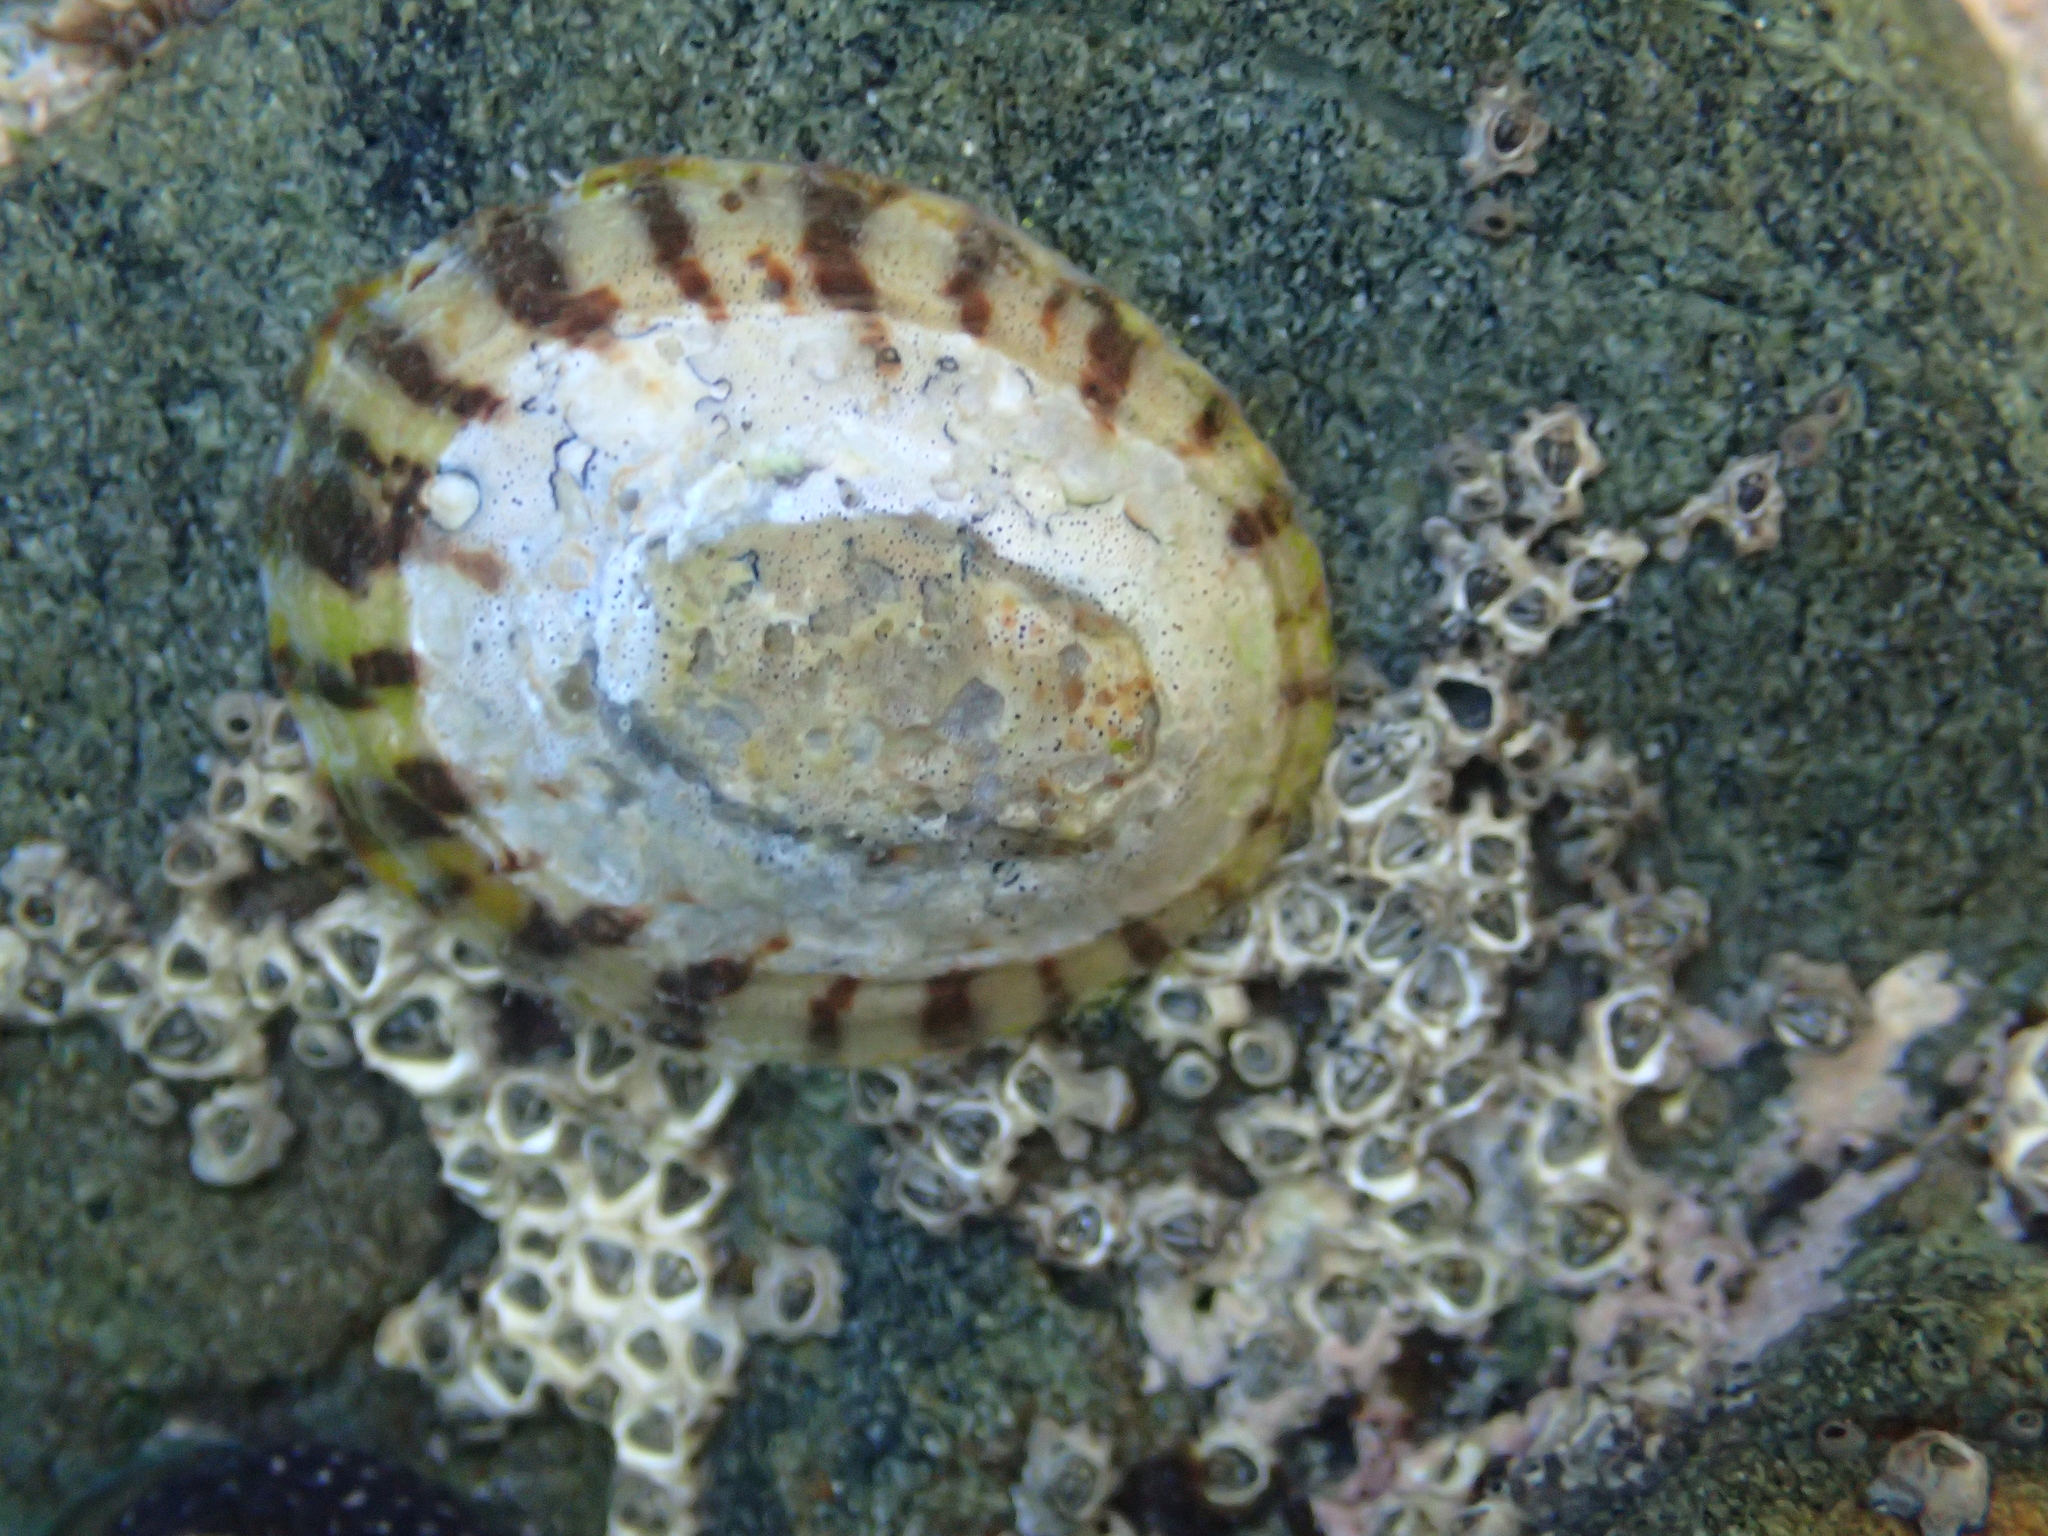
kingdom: Animalia
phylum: Mollusca
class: Gastropoda
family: Nacellidae
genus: Cellana
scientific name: Cellana radians
